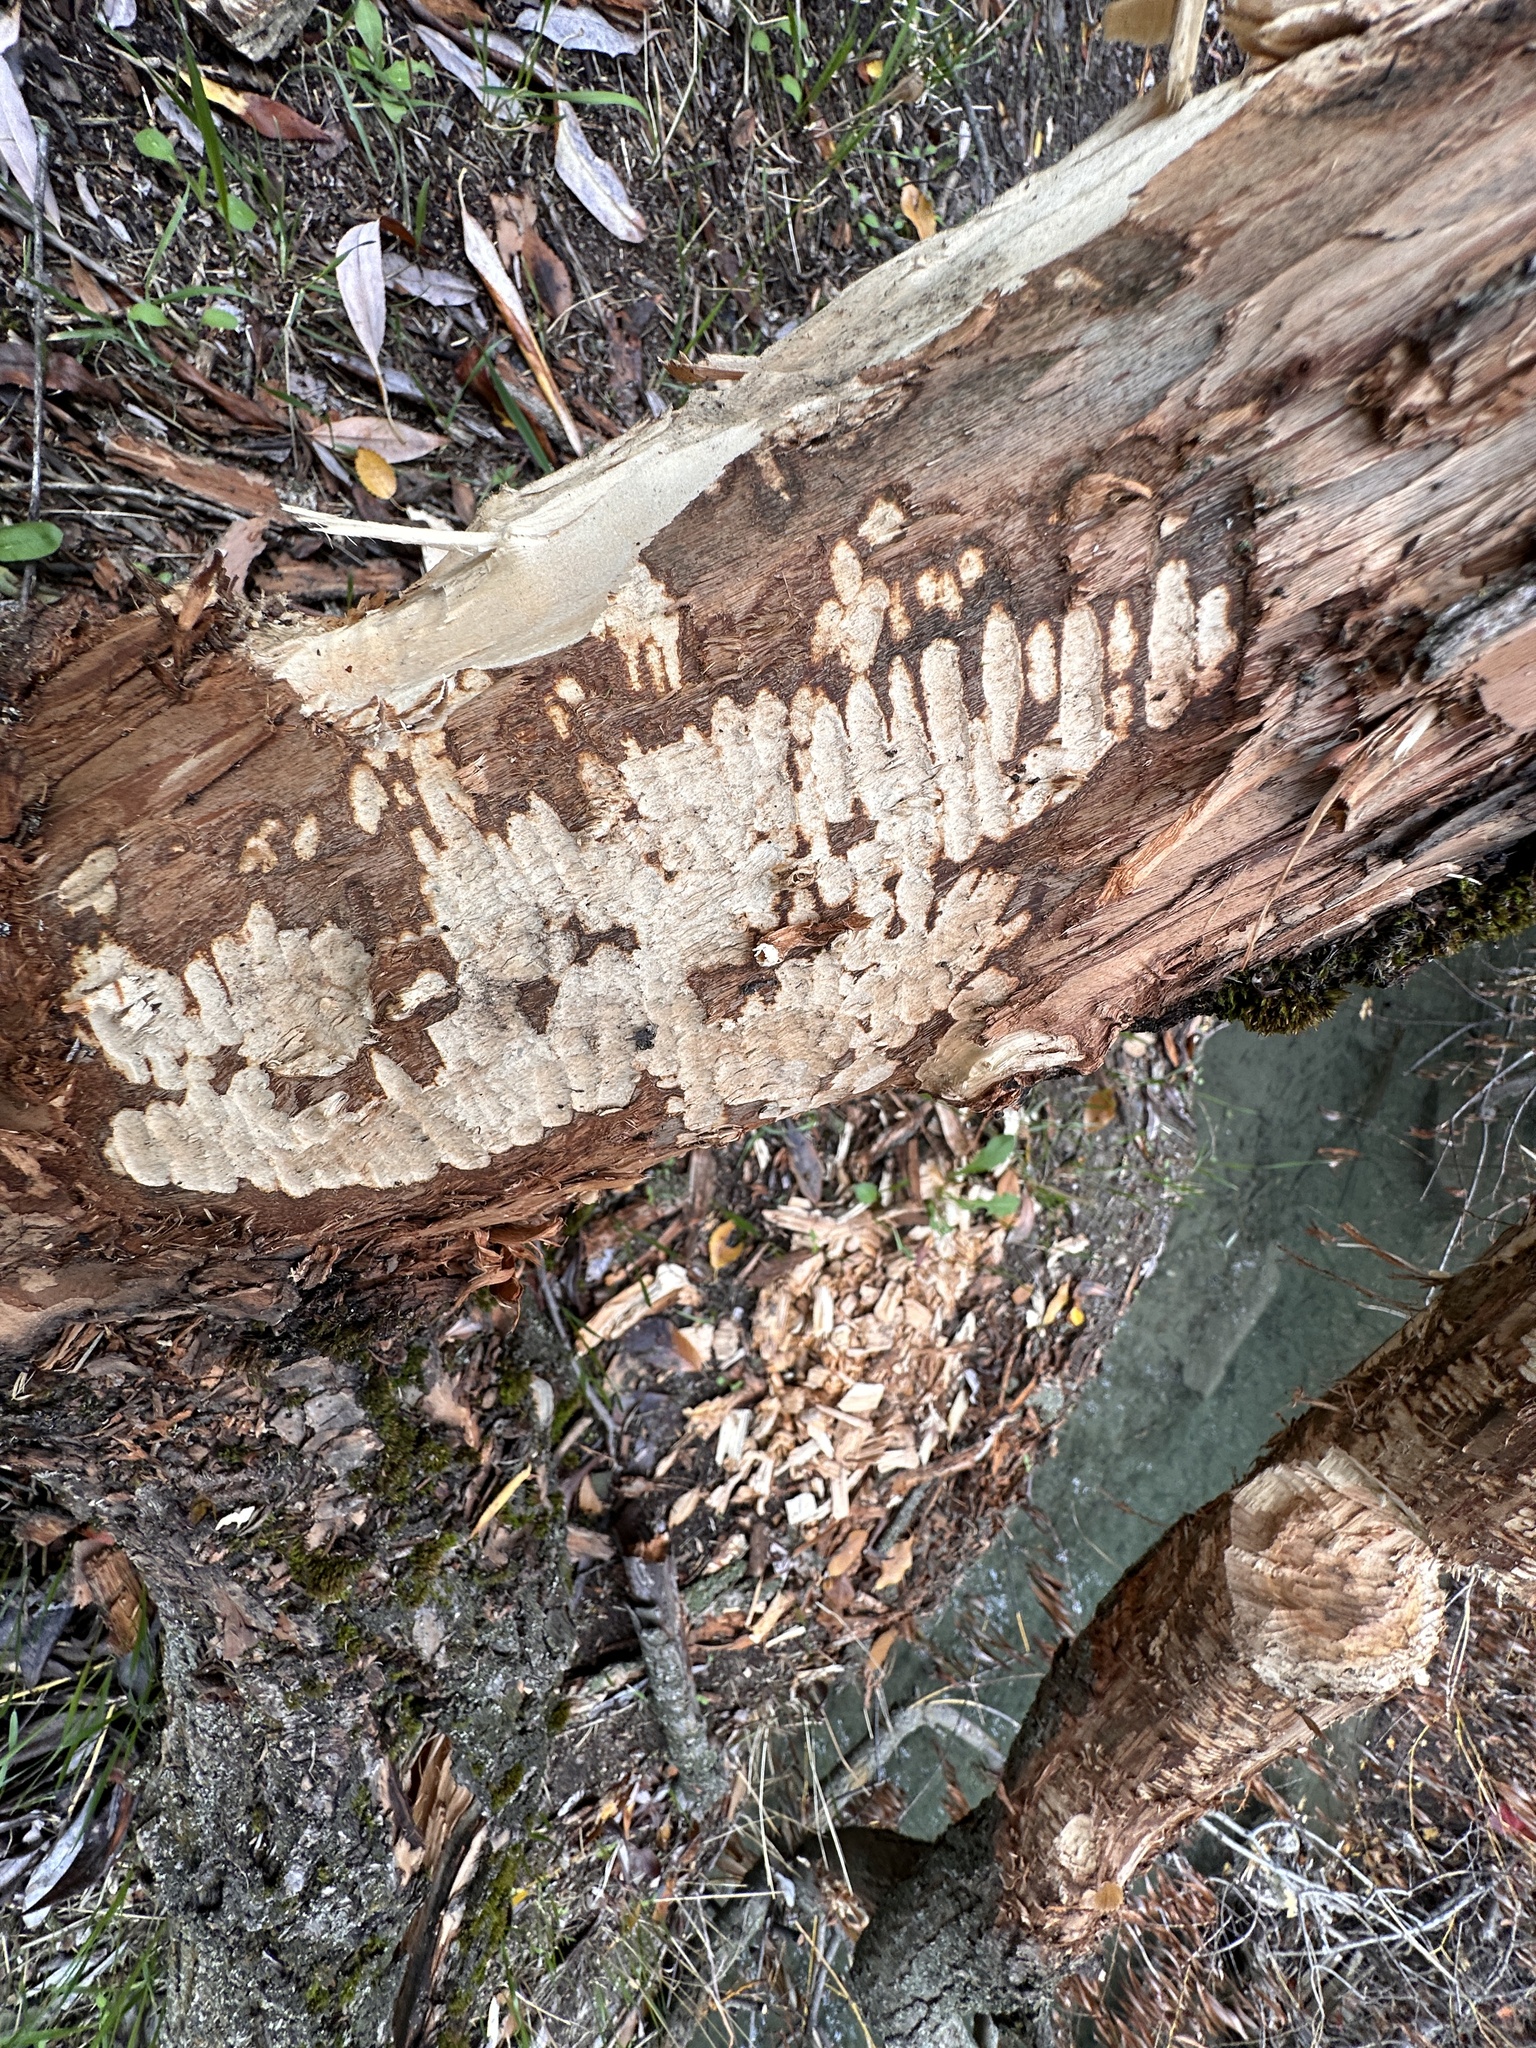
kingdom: Animalia
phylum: Chordata
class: Mammalia
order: Rodentia
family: Castoridae
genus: Castor
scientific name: Castor canadensis
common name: American beaver
